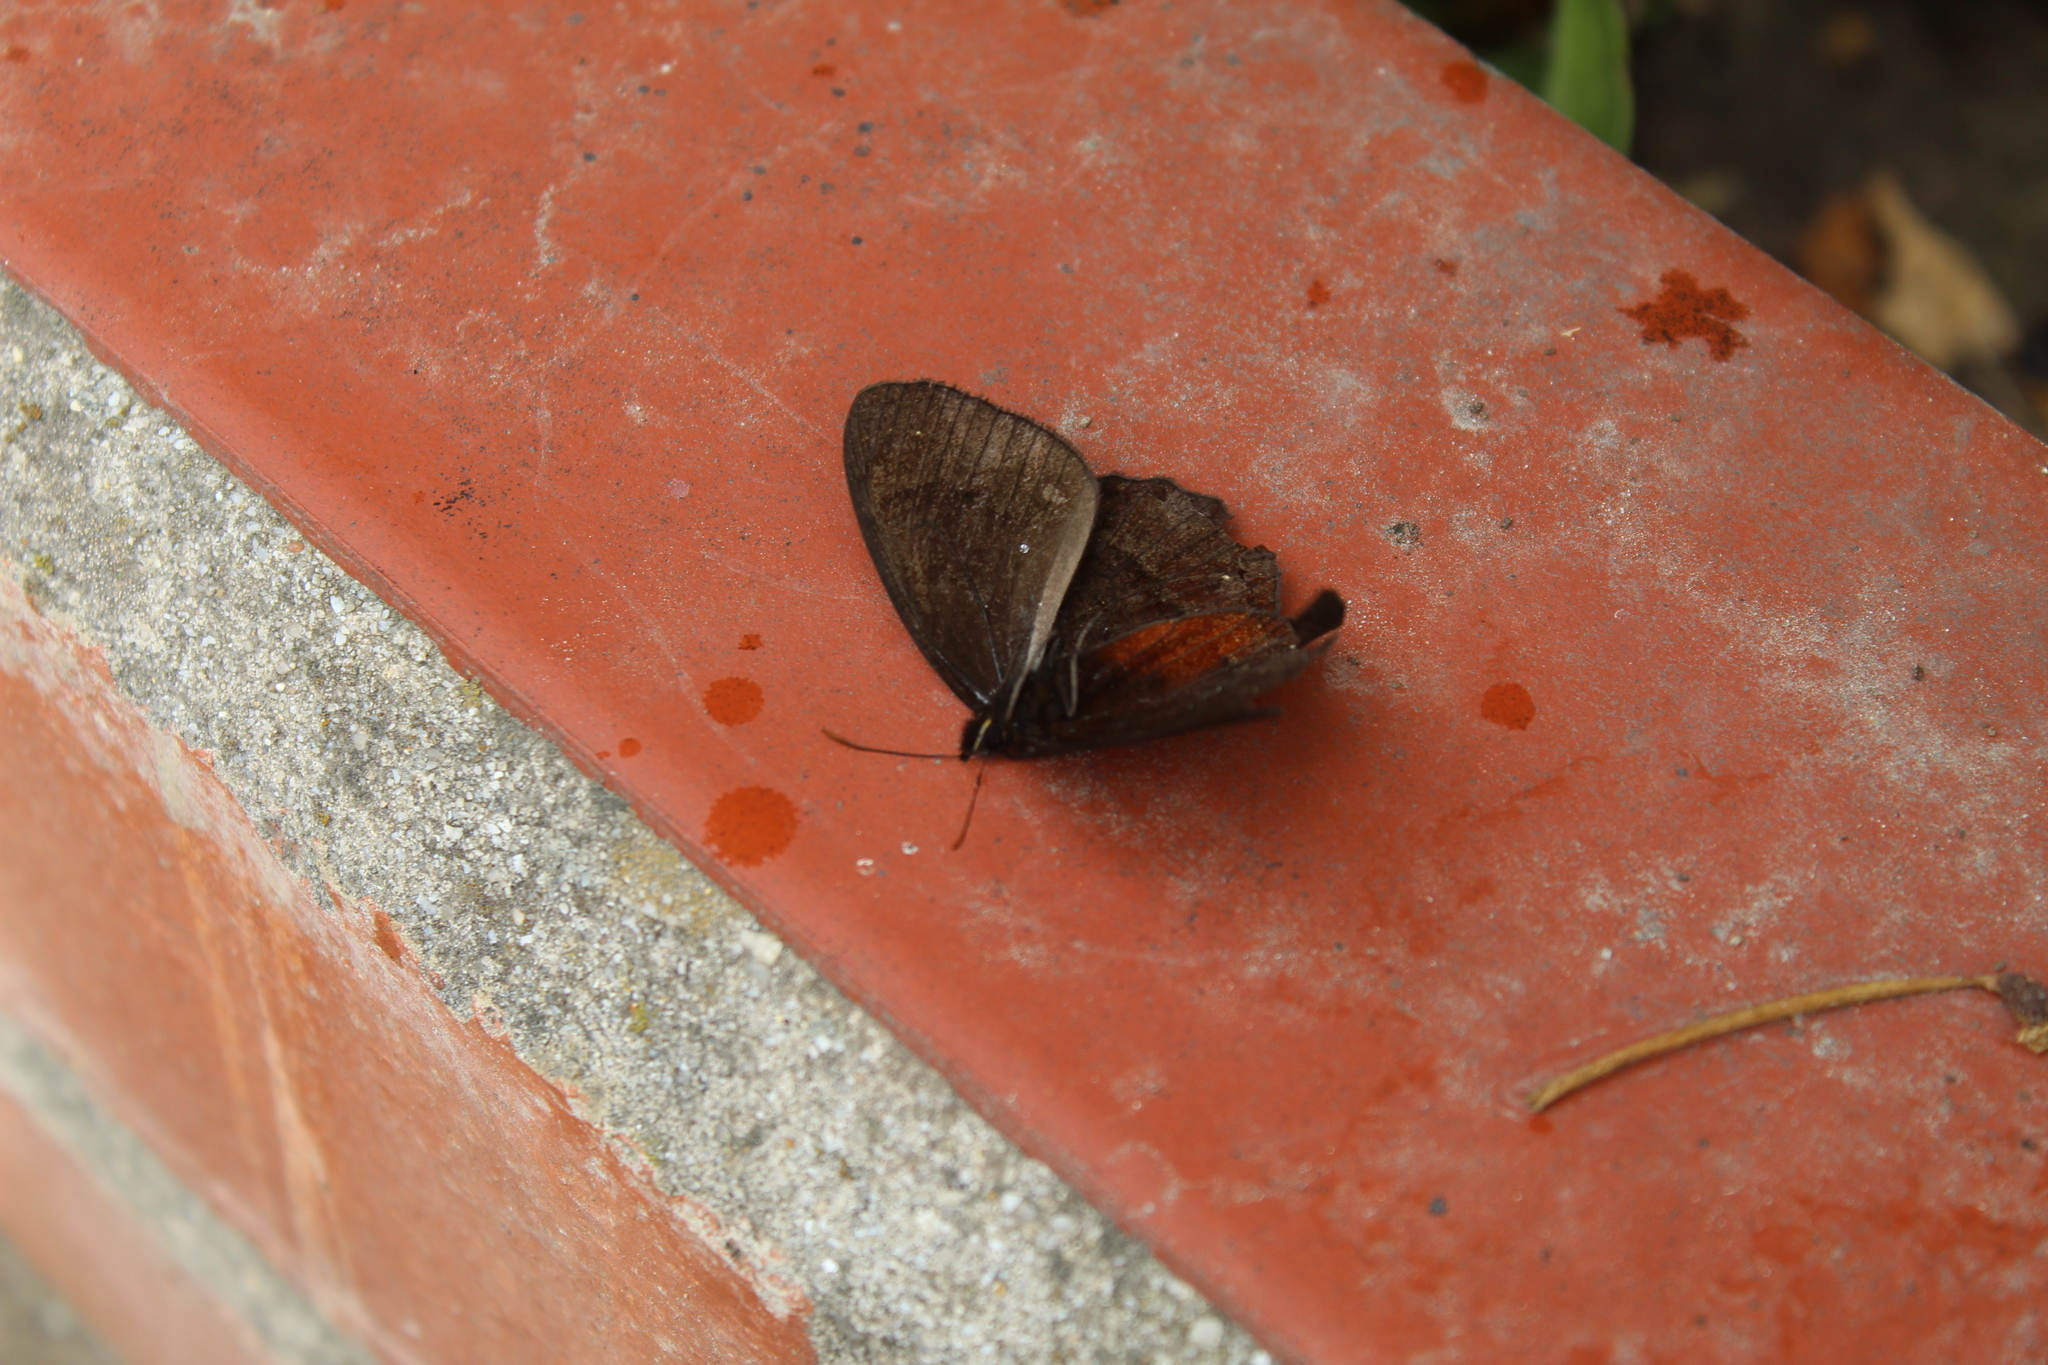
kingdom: Animalia
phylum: Arthropoda
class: Insecta
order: Lepidoptera
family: Nymphalidae
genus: Pedaliodes
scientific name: Pedaliodes
